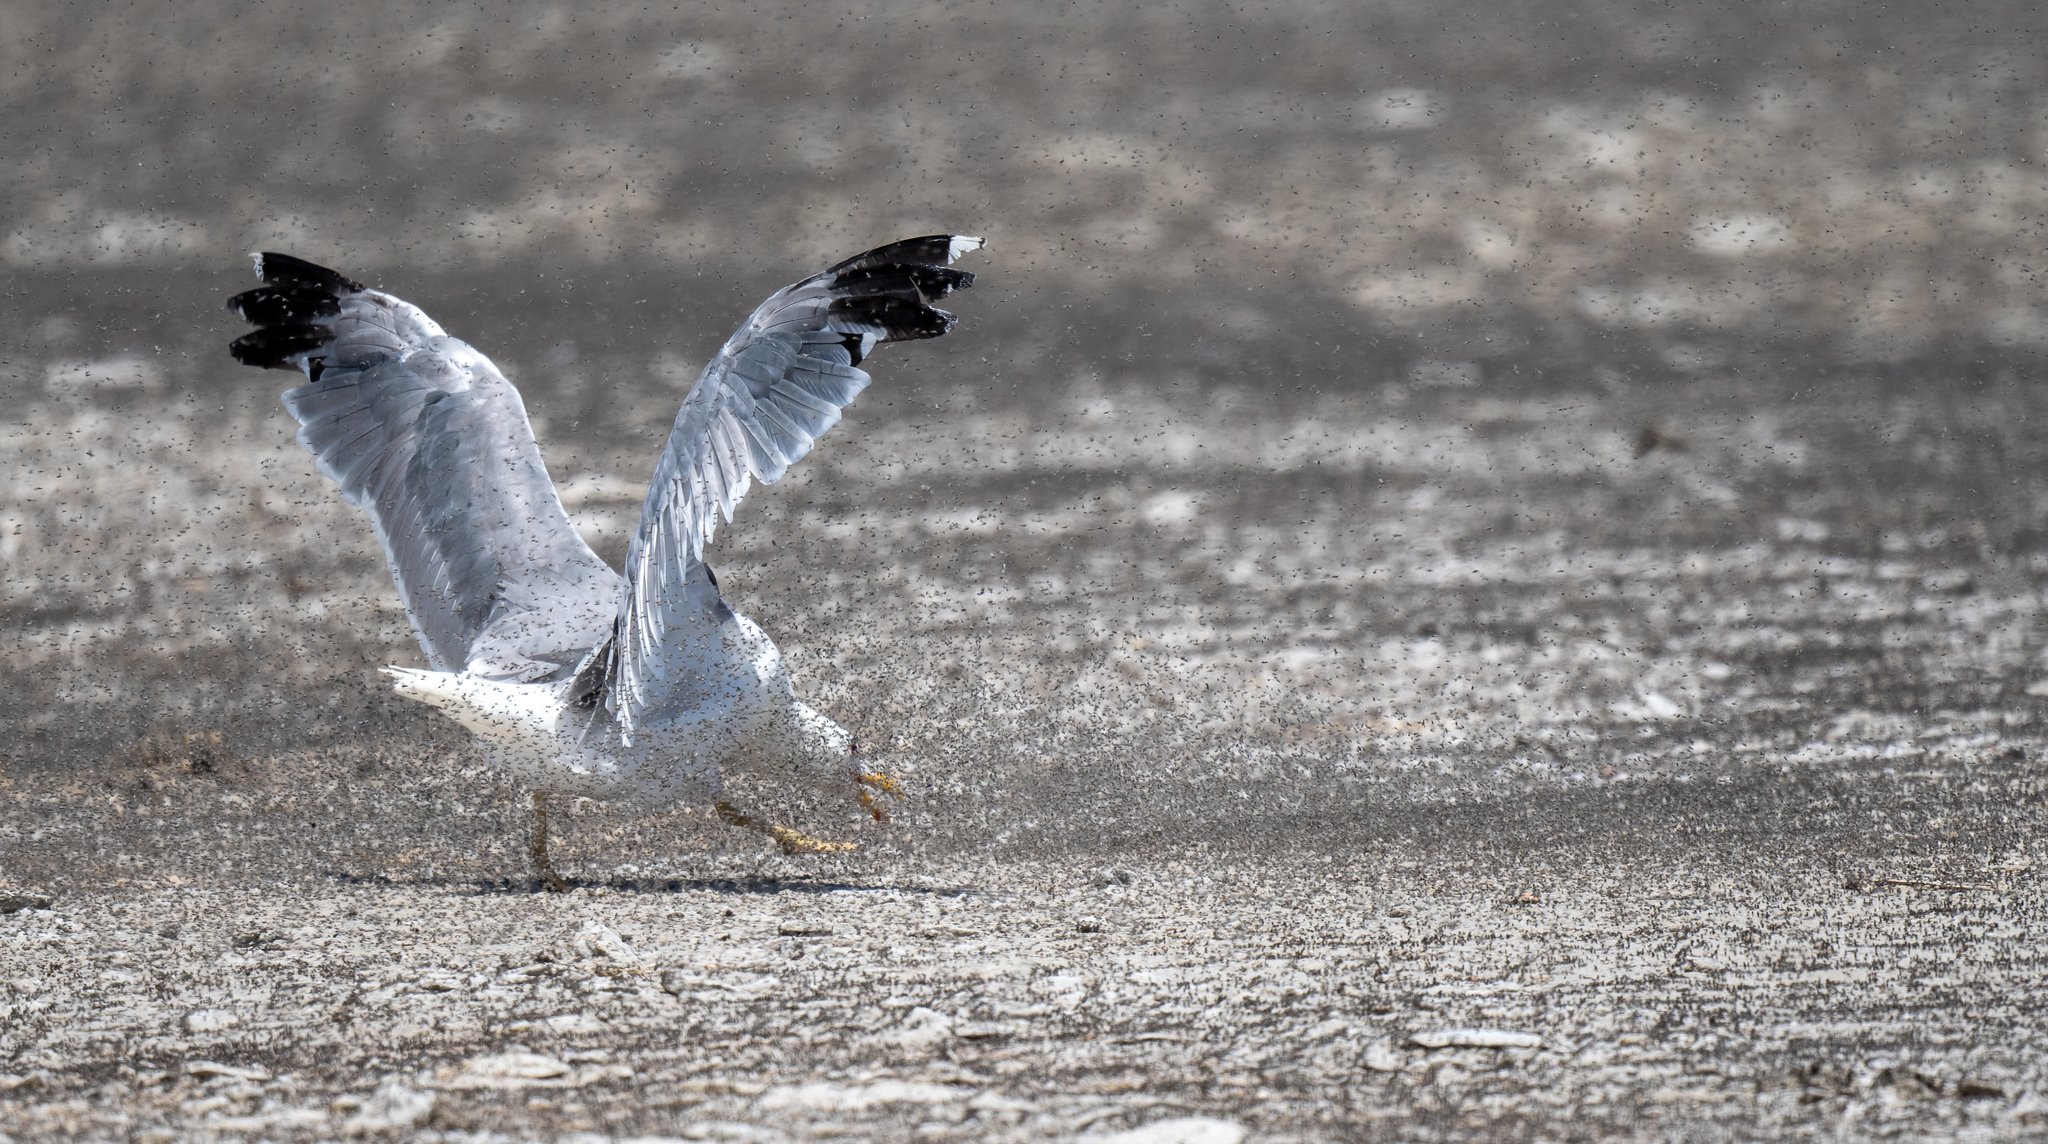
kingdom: Animalia
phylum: Chordata
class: Aves
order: Charadriiformes
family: Laridae
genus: Larus
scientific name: Larus californicus
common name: California gull
